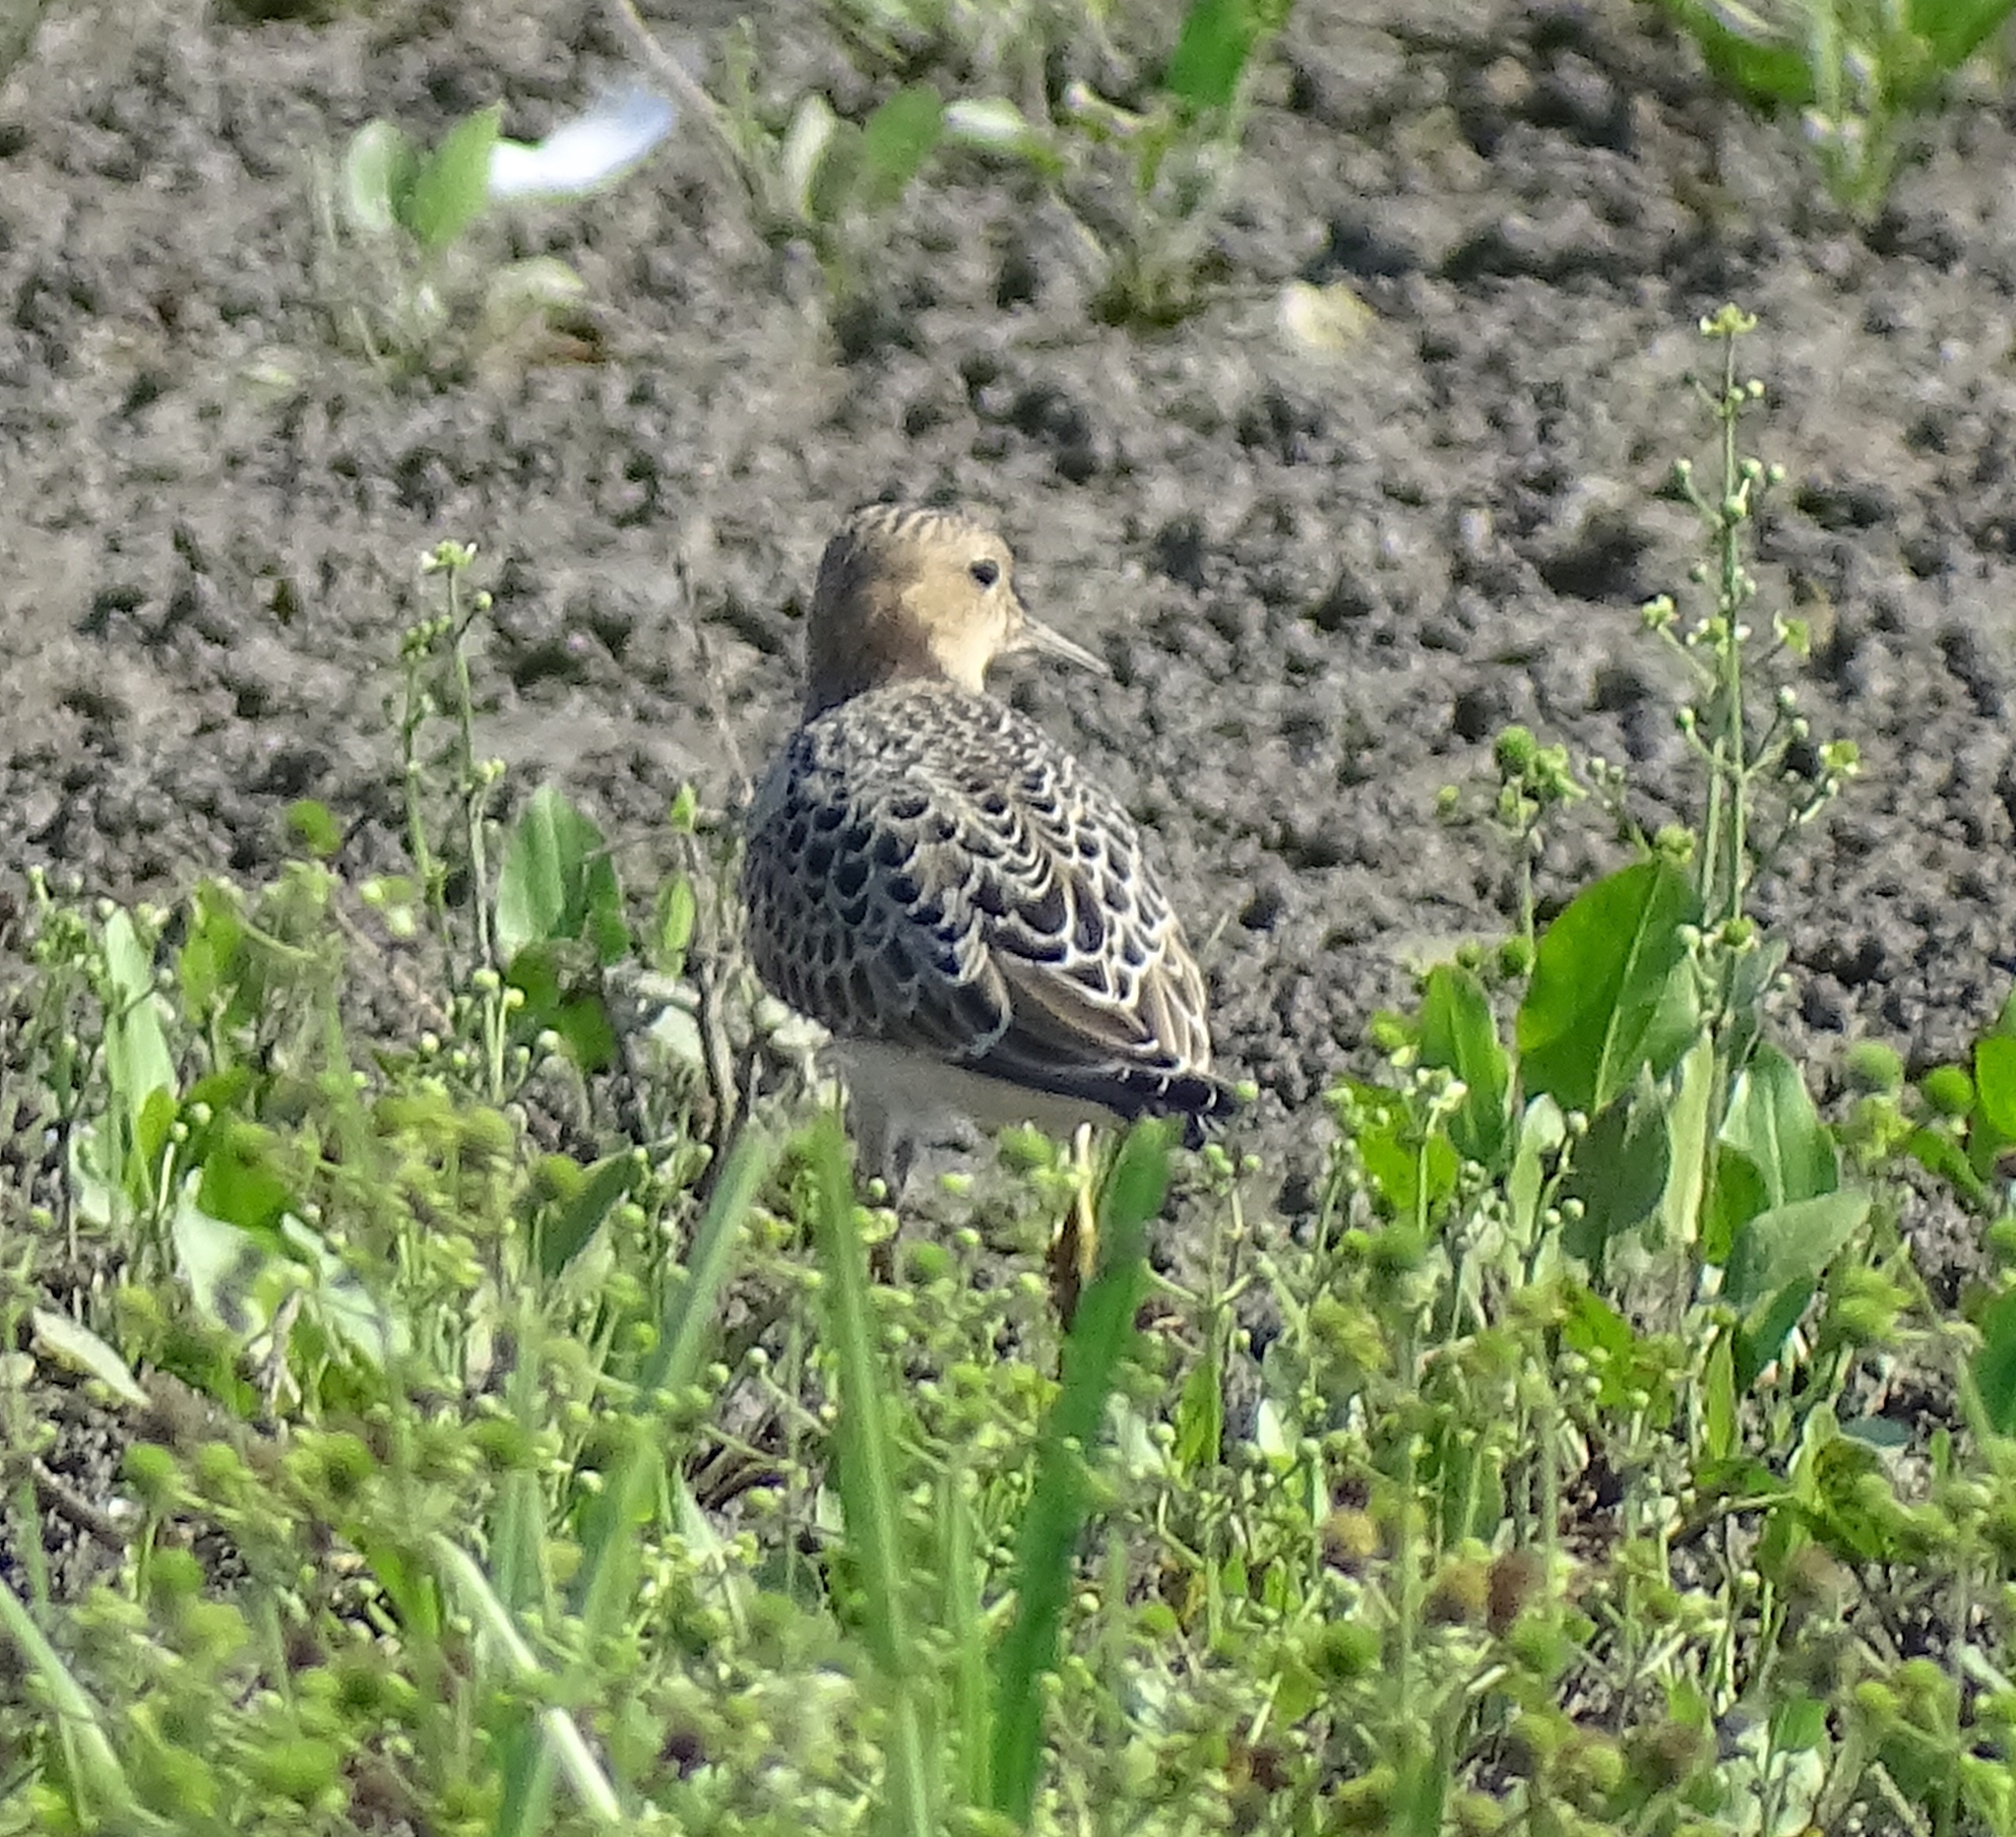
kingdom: Animalia
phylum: Chordata
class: Aves
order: Charadriiformes
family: Scolopacidae
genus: Calidris
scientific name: Calidris subruficollis
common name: Buff-breasted sandpiper
